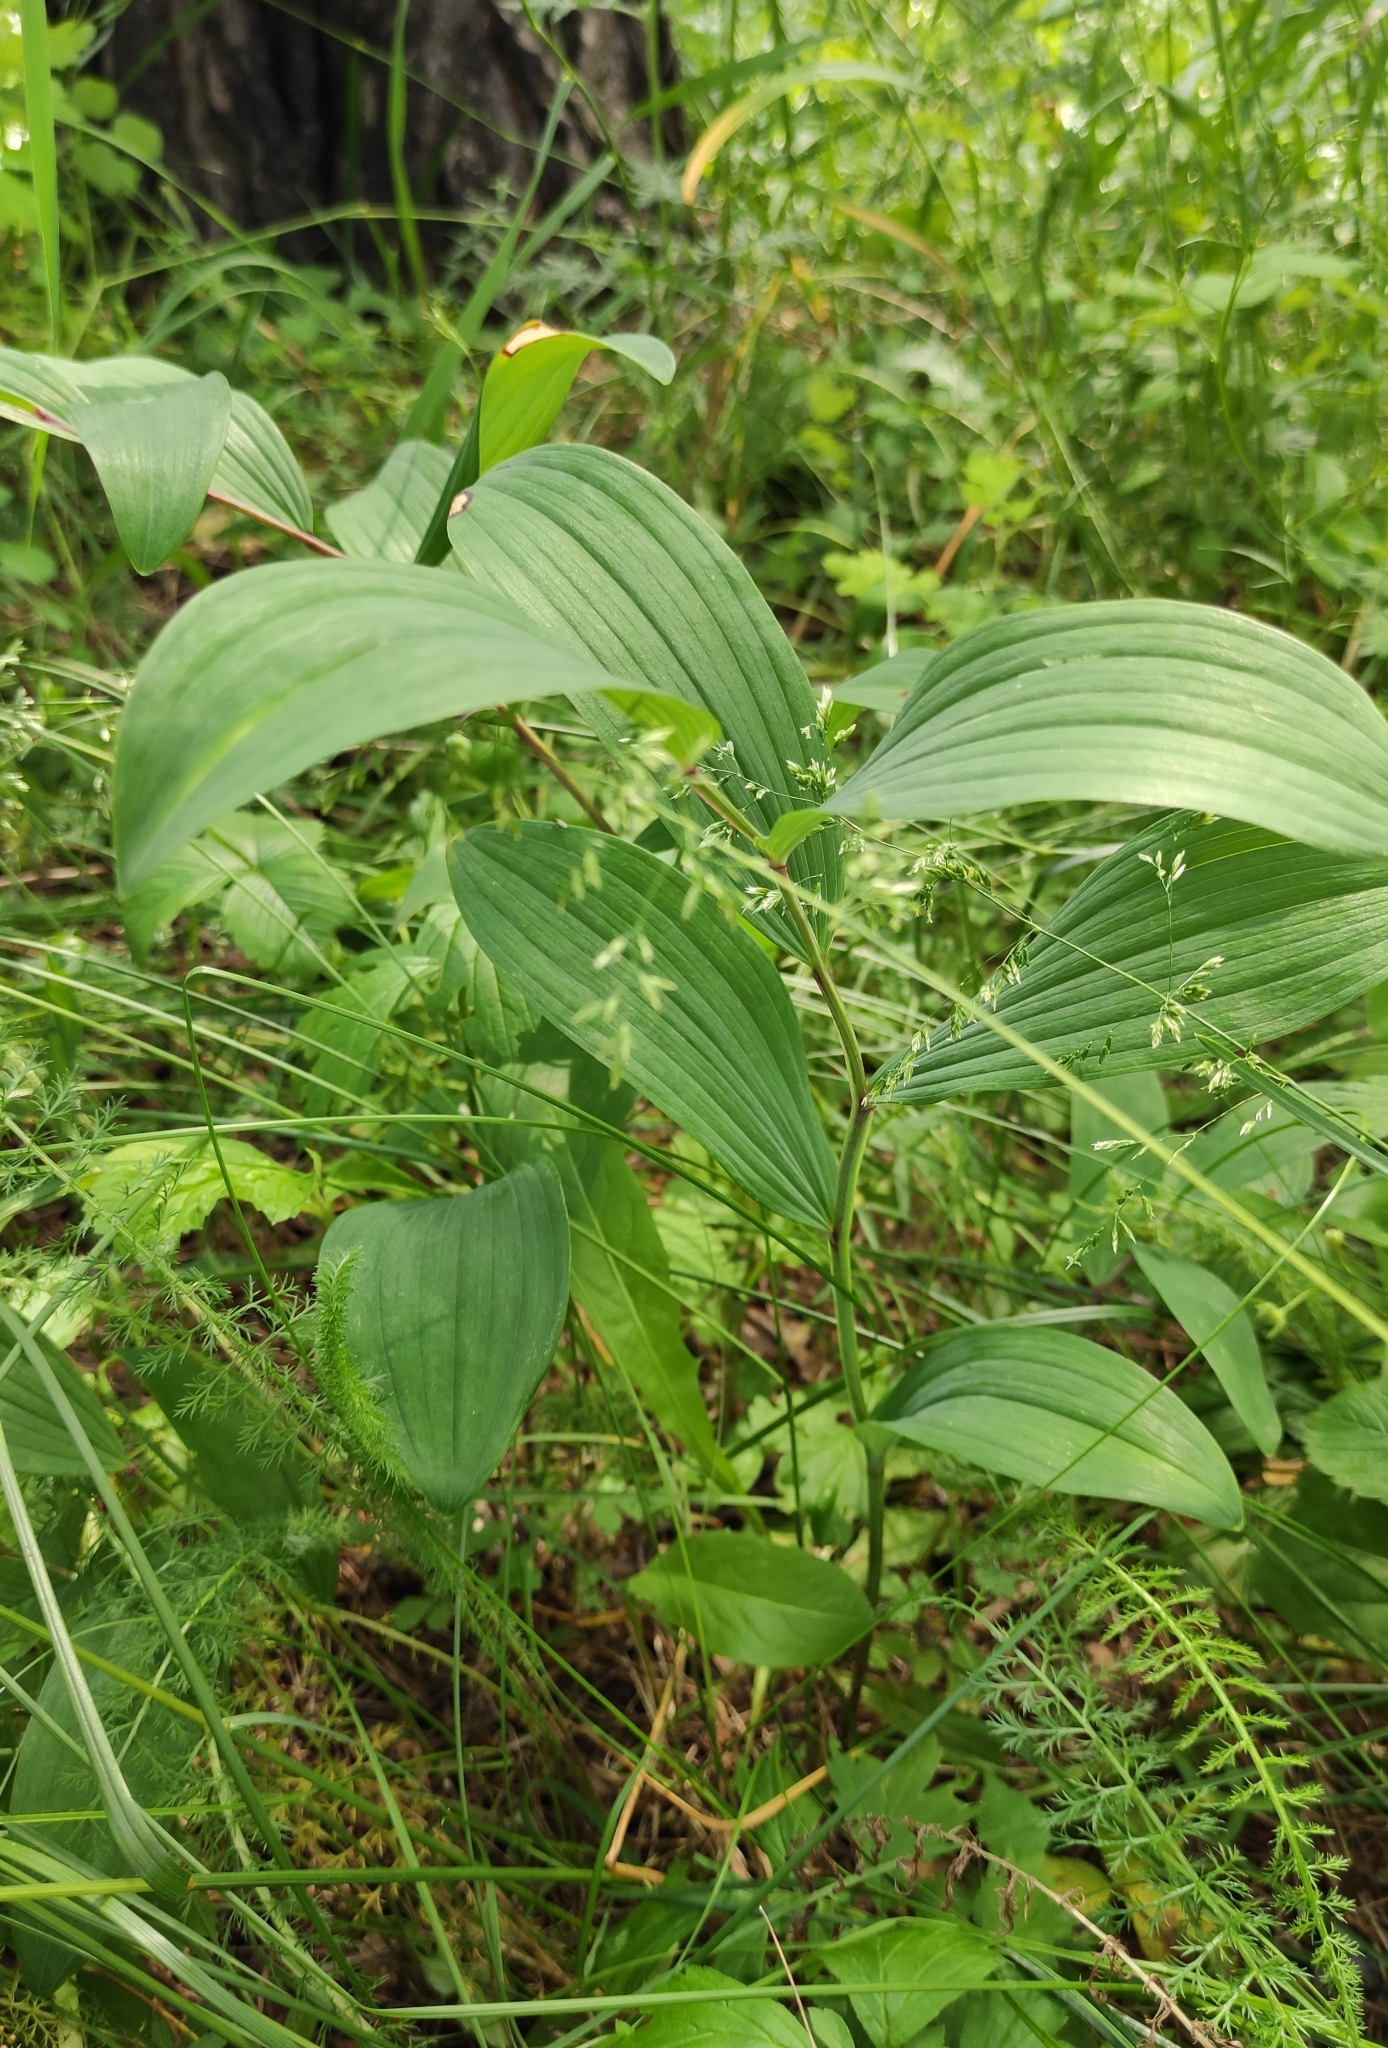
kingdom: Plantae
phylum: Tracheophyta
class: Liliopsida
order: Asparagales
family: Asparagaceae
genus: Polygonatum
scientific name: Polygonatum odoratum
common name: Angular solomon's-seal
